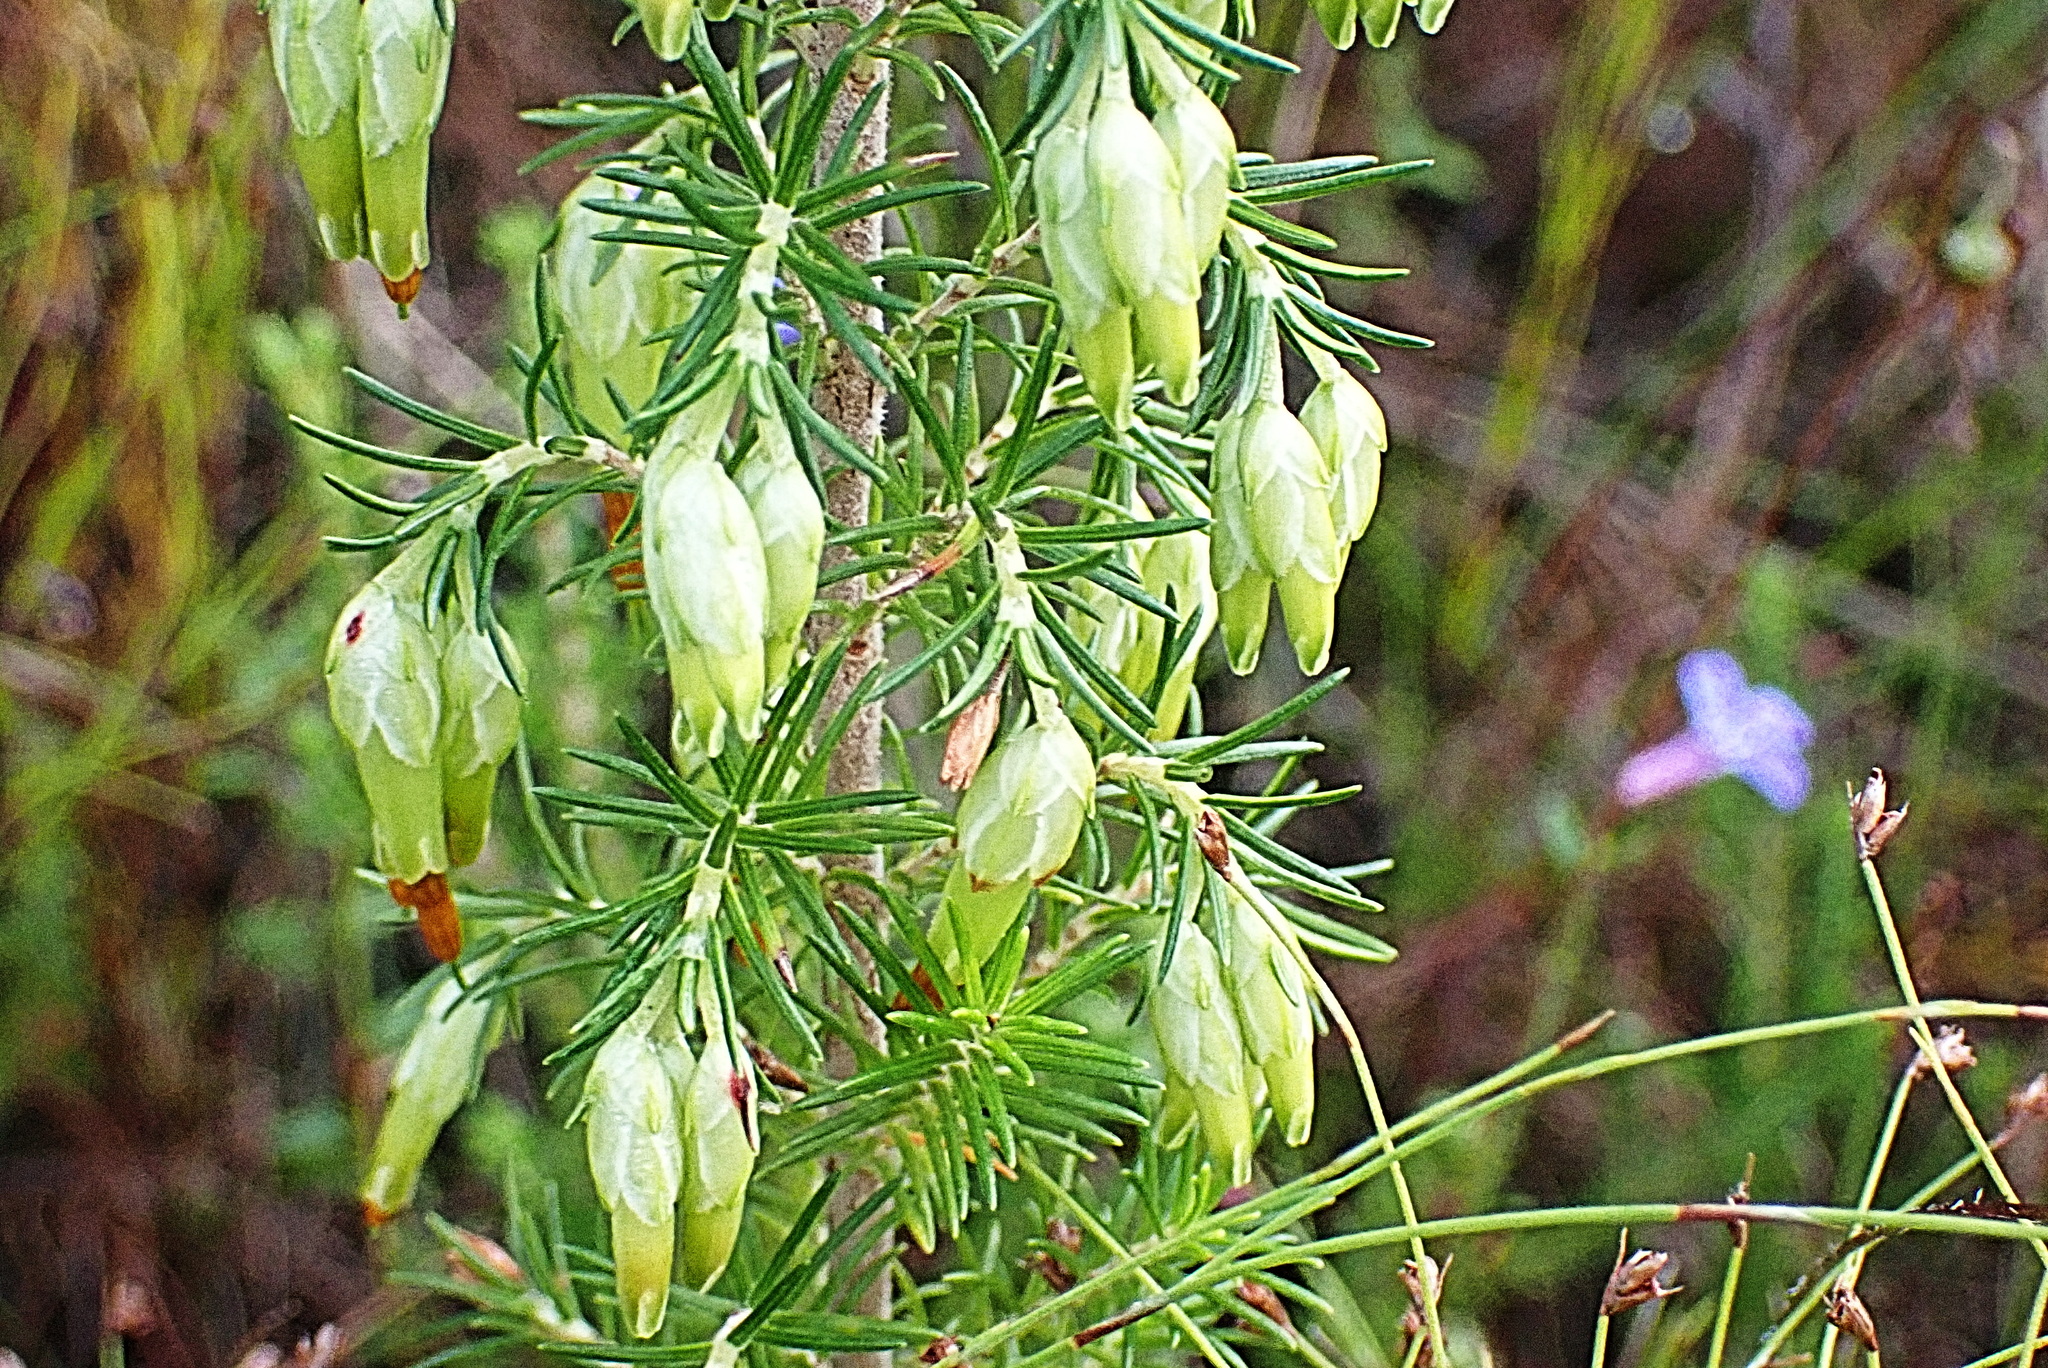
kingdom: Plantae
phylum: Tracheophyta
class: Magnoliopsida
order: Ericales
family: Ericaceae
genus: Erica
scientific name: Erica intermedia
